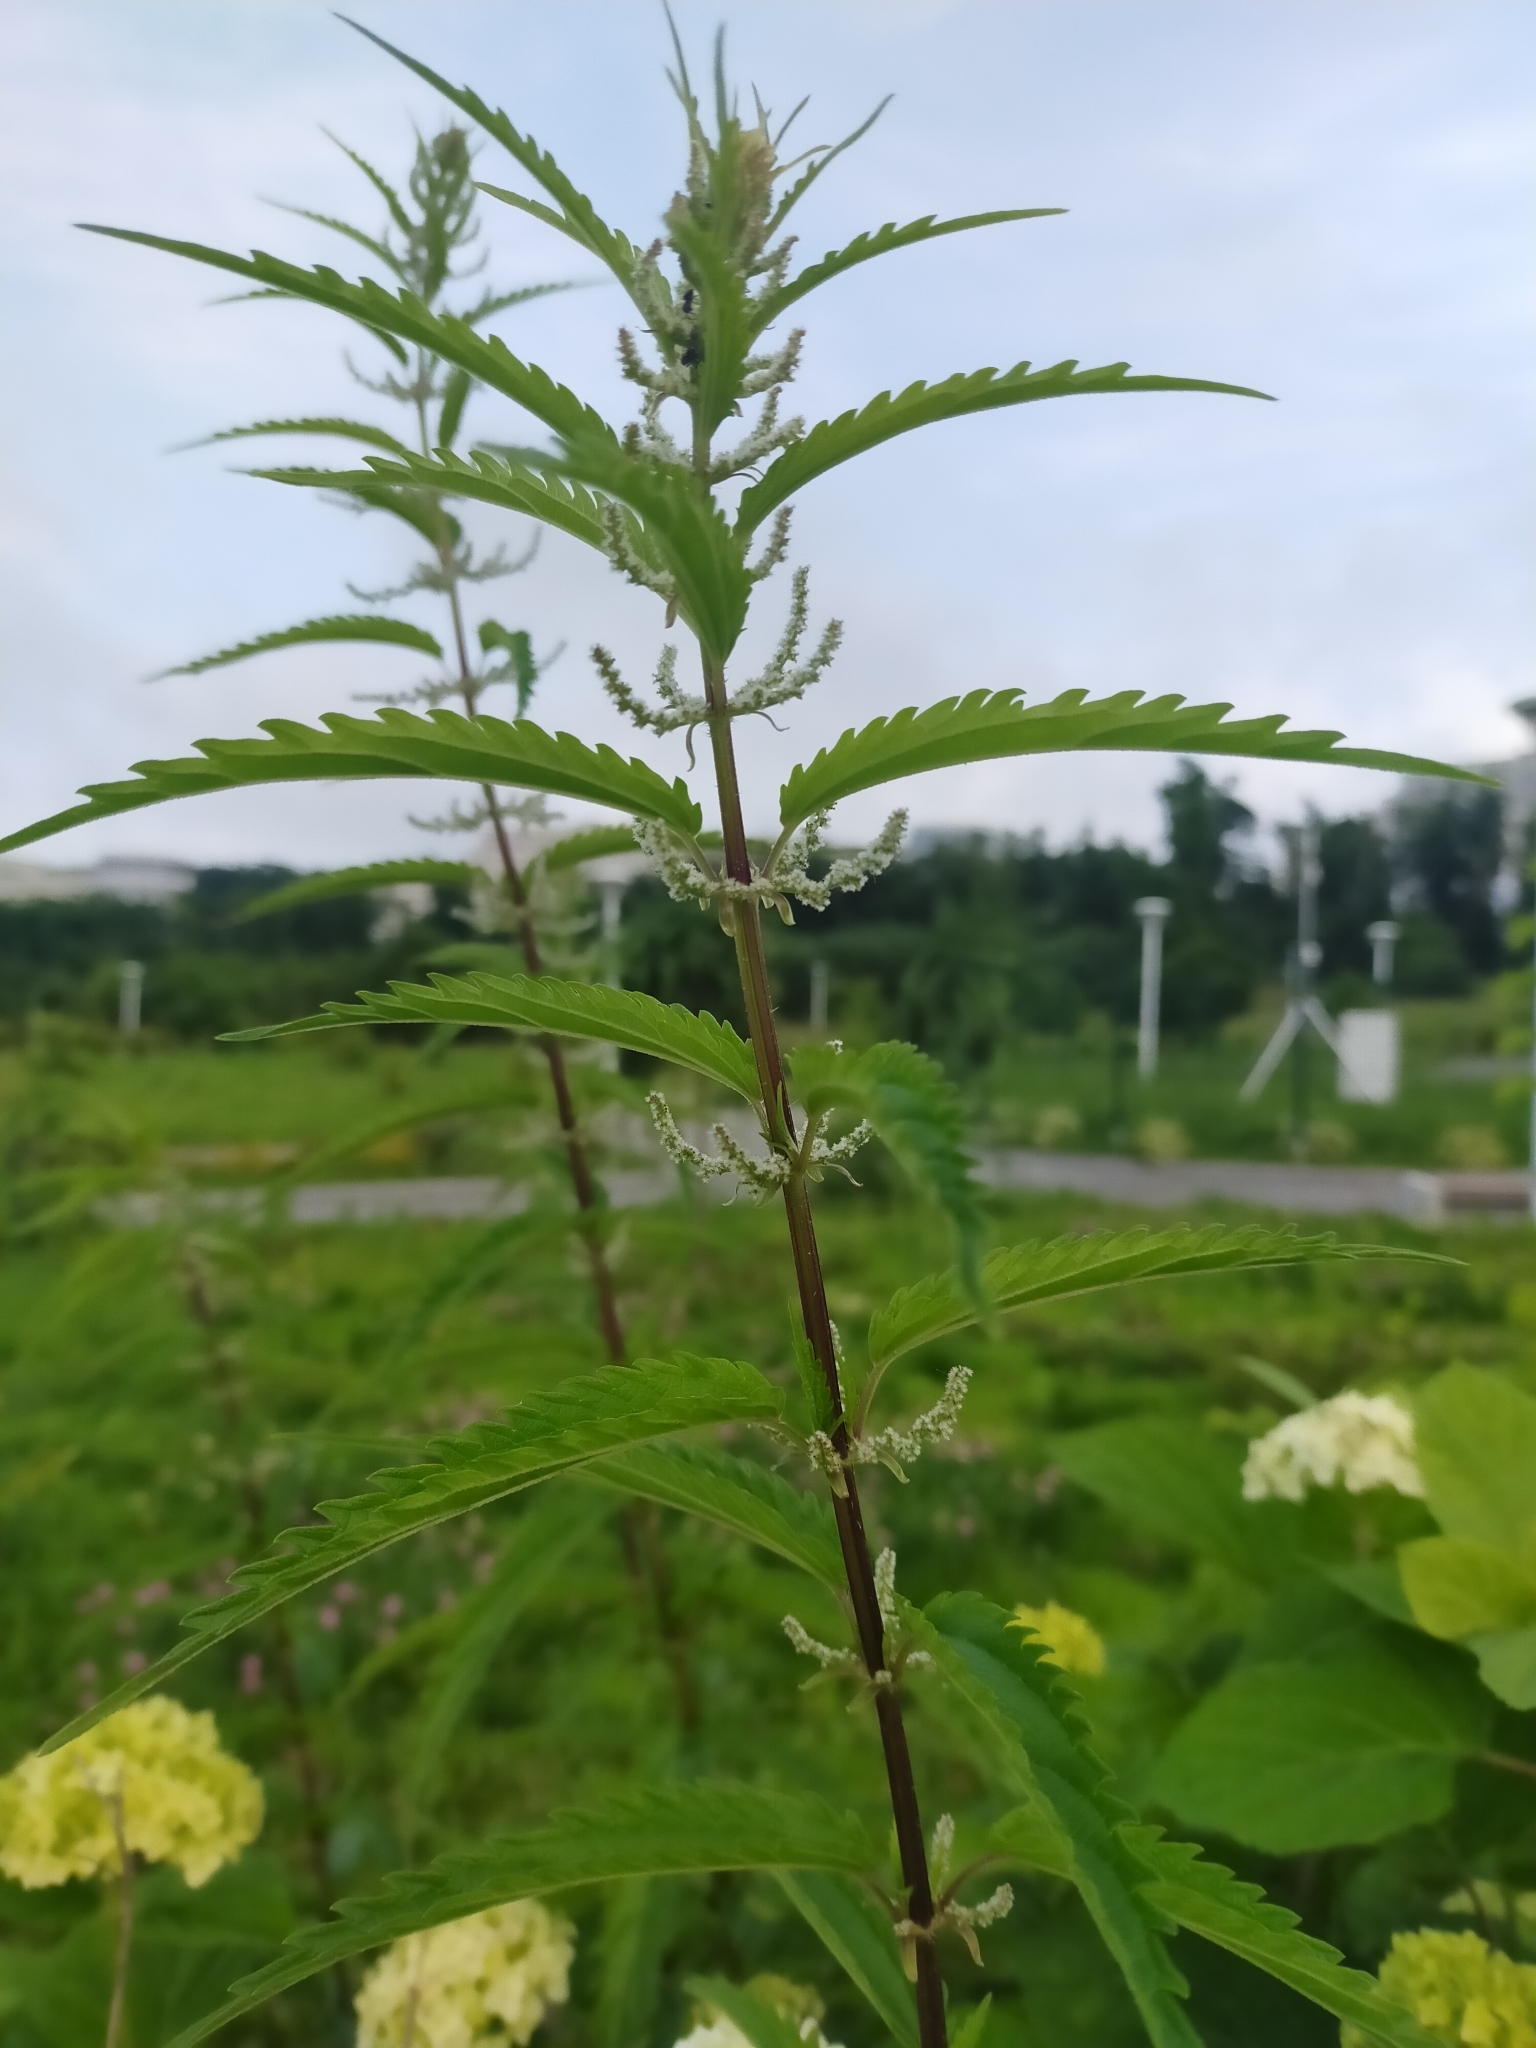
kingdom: Plantae
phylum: Tracheophyta
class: Magnoliopsida
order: Rosales
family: Urticaceae
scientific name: Urticaceae
